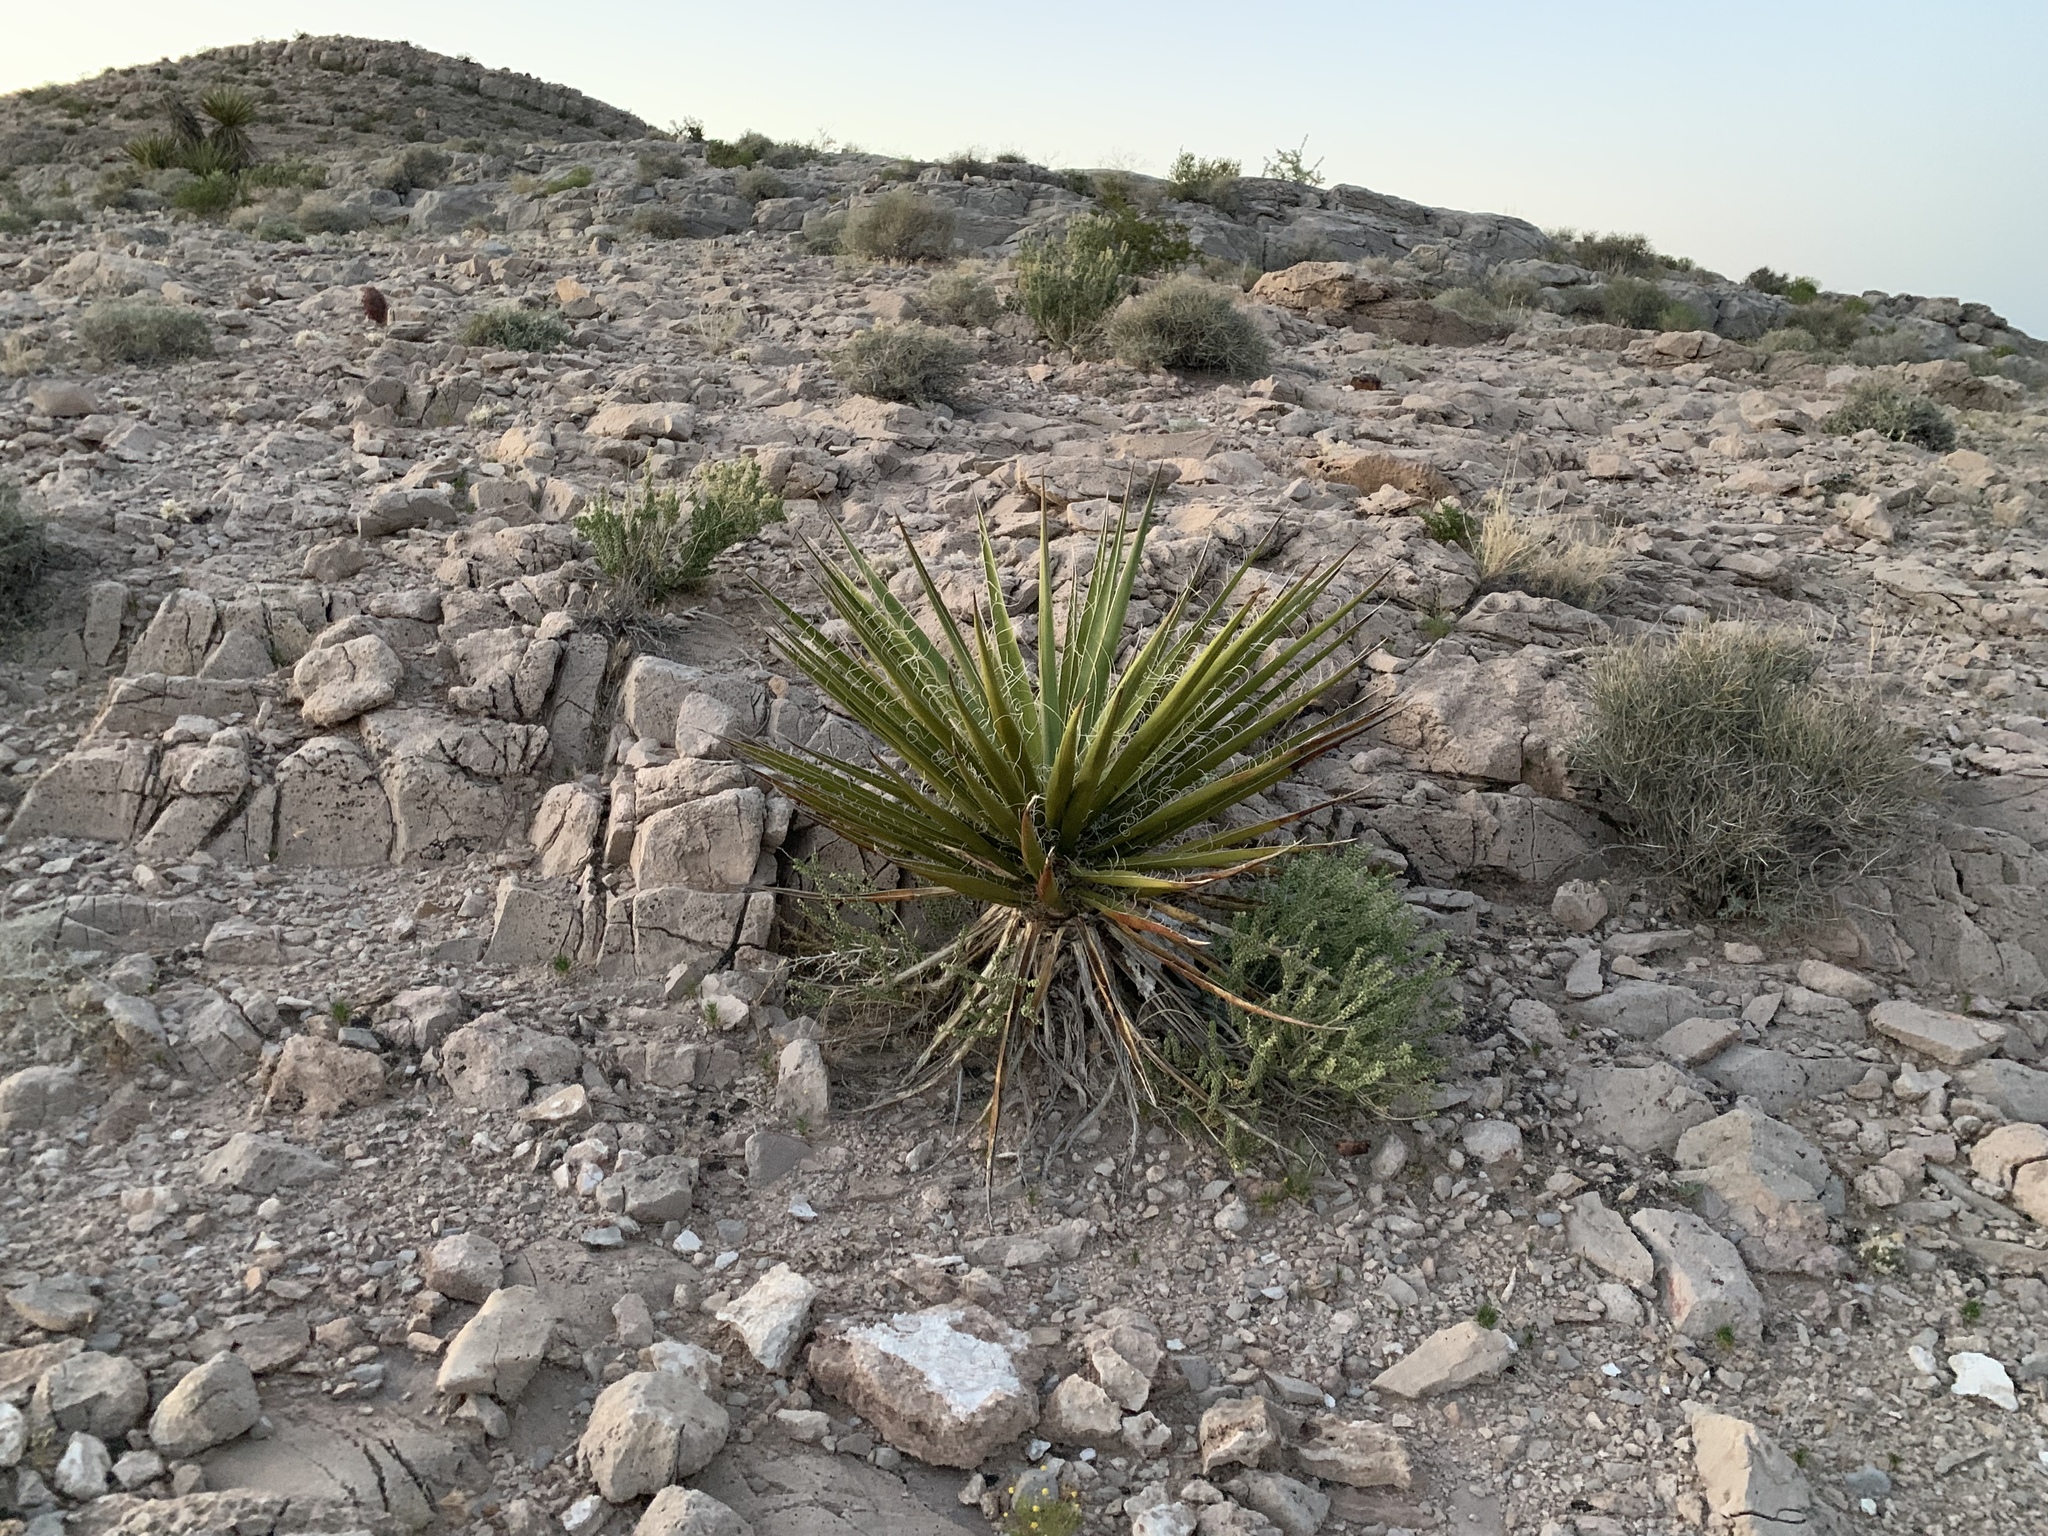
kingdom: Plantae
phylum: Tracheophyta
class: Liliopsida
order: Asparagales
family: Asparagaceae
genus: Yucca
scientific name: Yucca schidigera
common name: Mojave yucca
